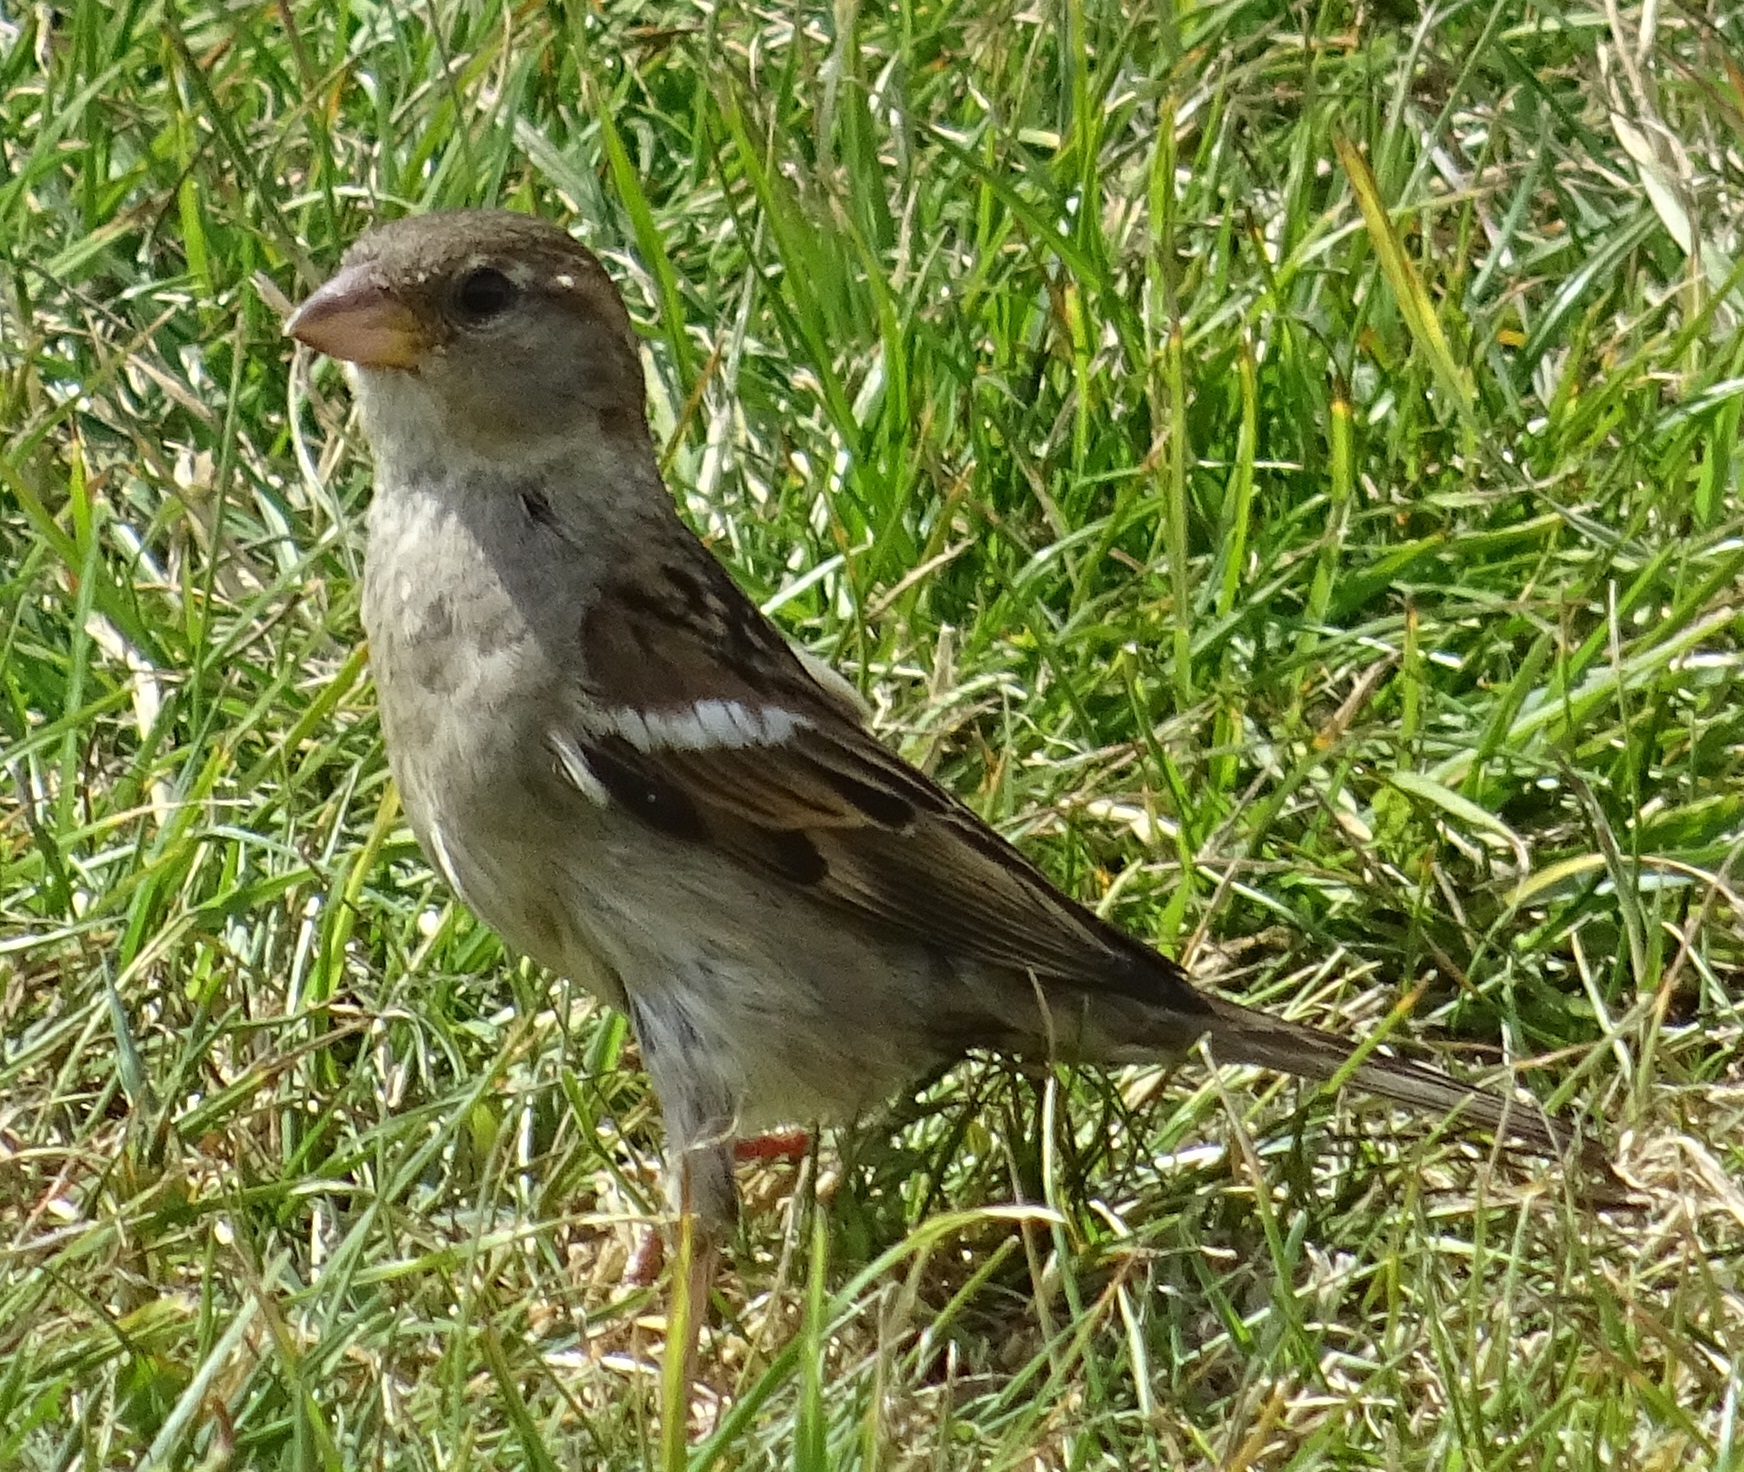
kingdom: Animalia
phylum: Chordata
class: Aves
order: Passeriformes
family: Passeridae
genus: Passer
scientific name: Passer domesticus
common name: House sparrow
